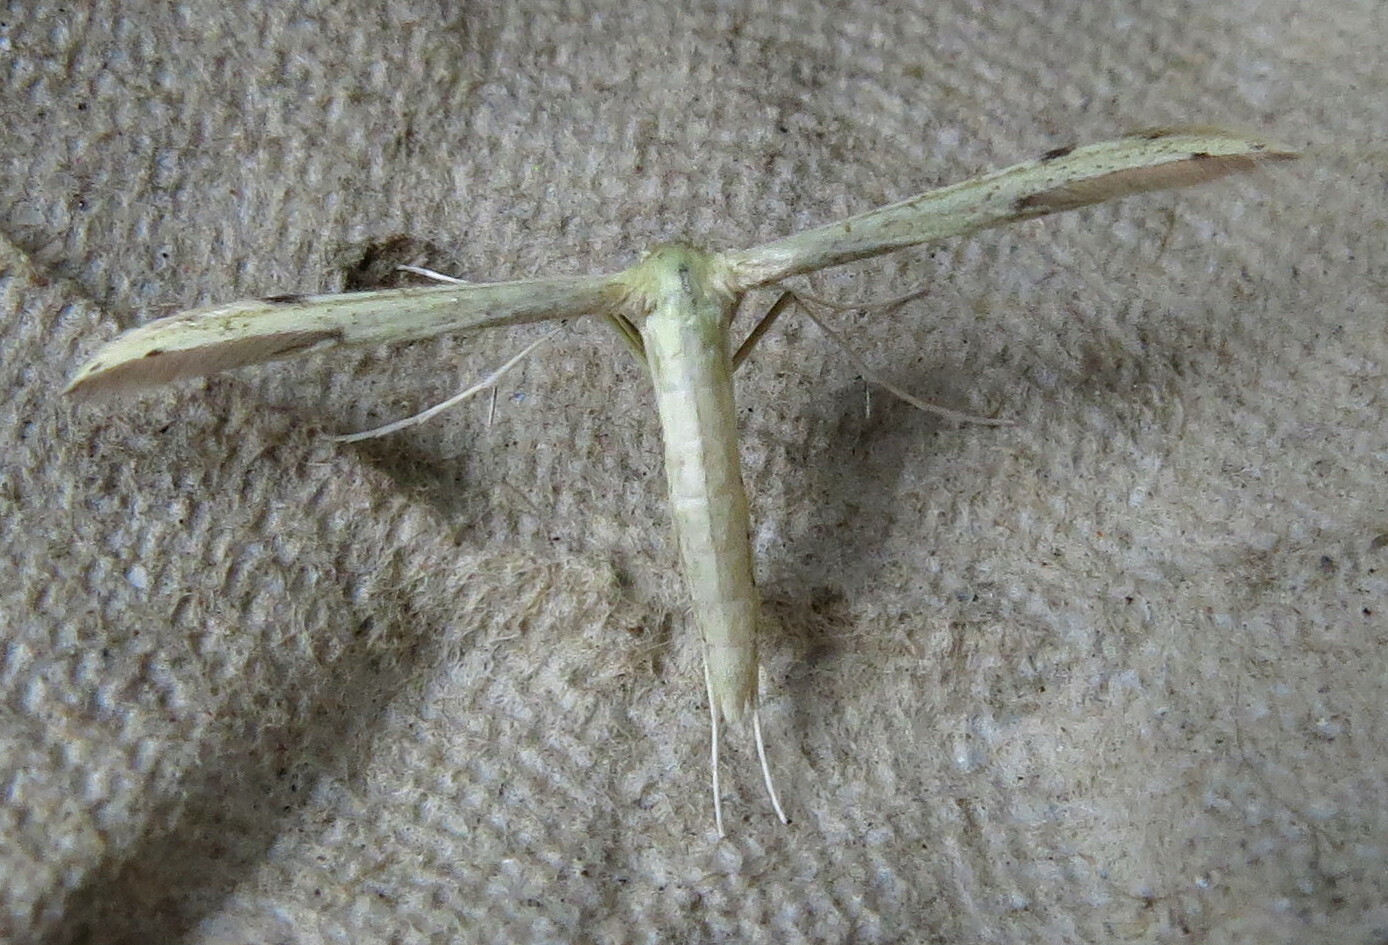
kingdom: Animalia
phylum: Arthropoda
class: Insecta
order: Lepidoptera
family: Pterophoridae
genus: Adaina
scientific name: Adaina microdactyla
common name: Hemp-agrimony plume
